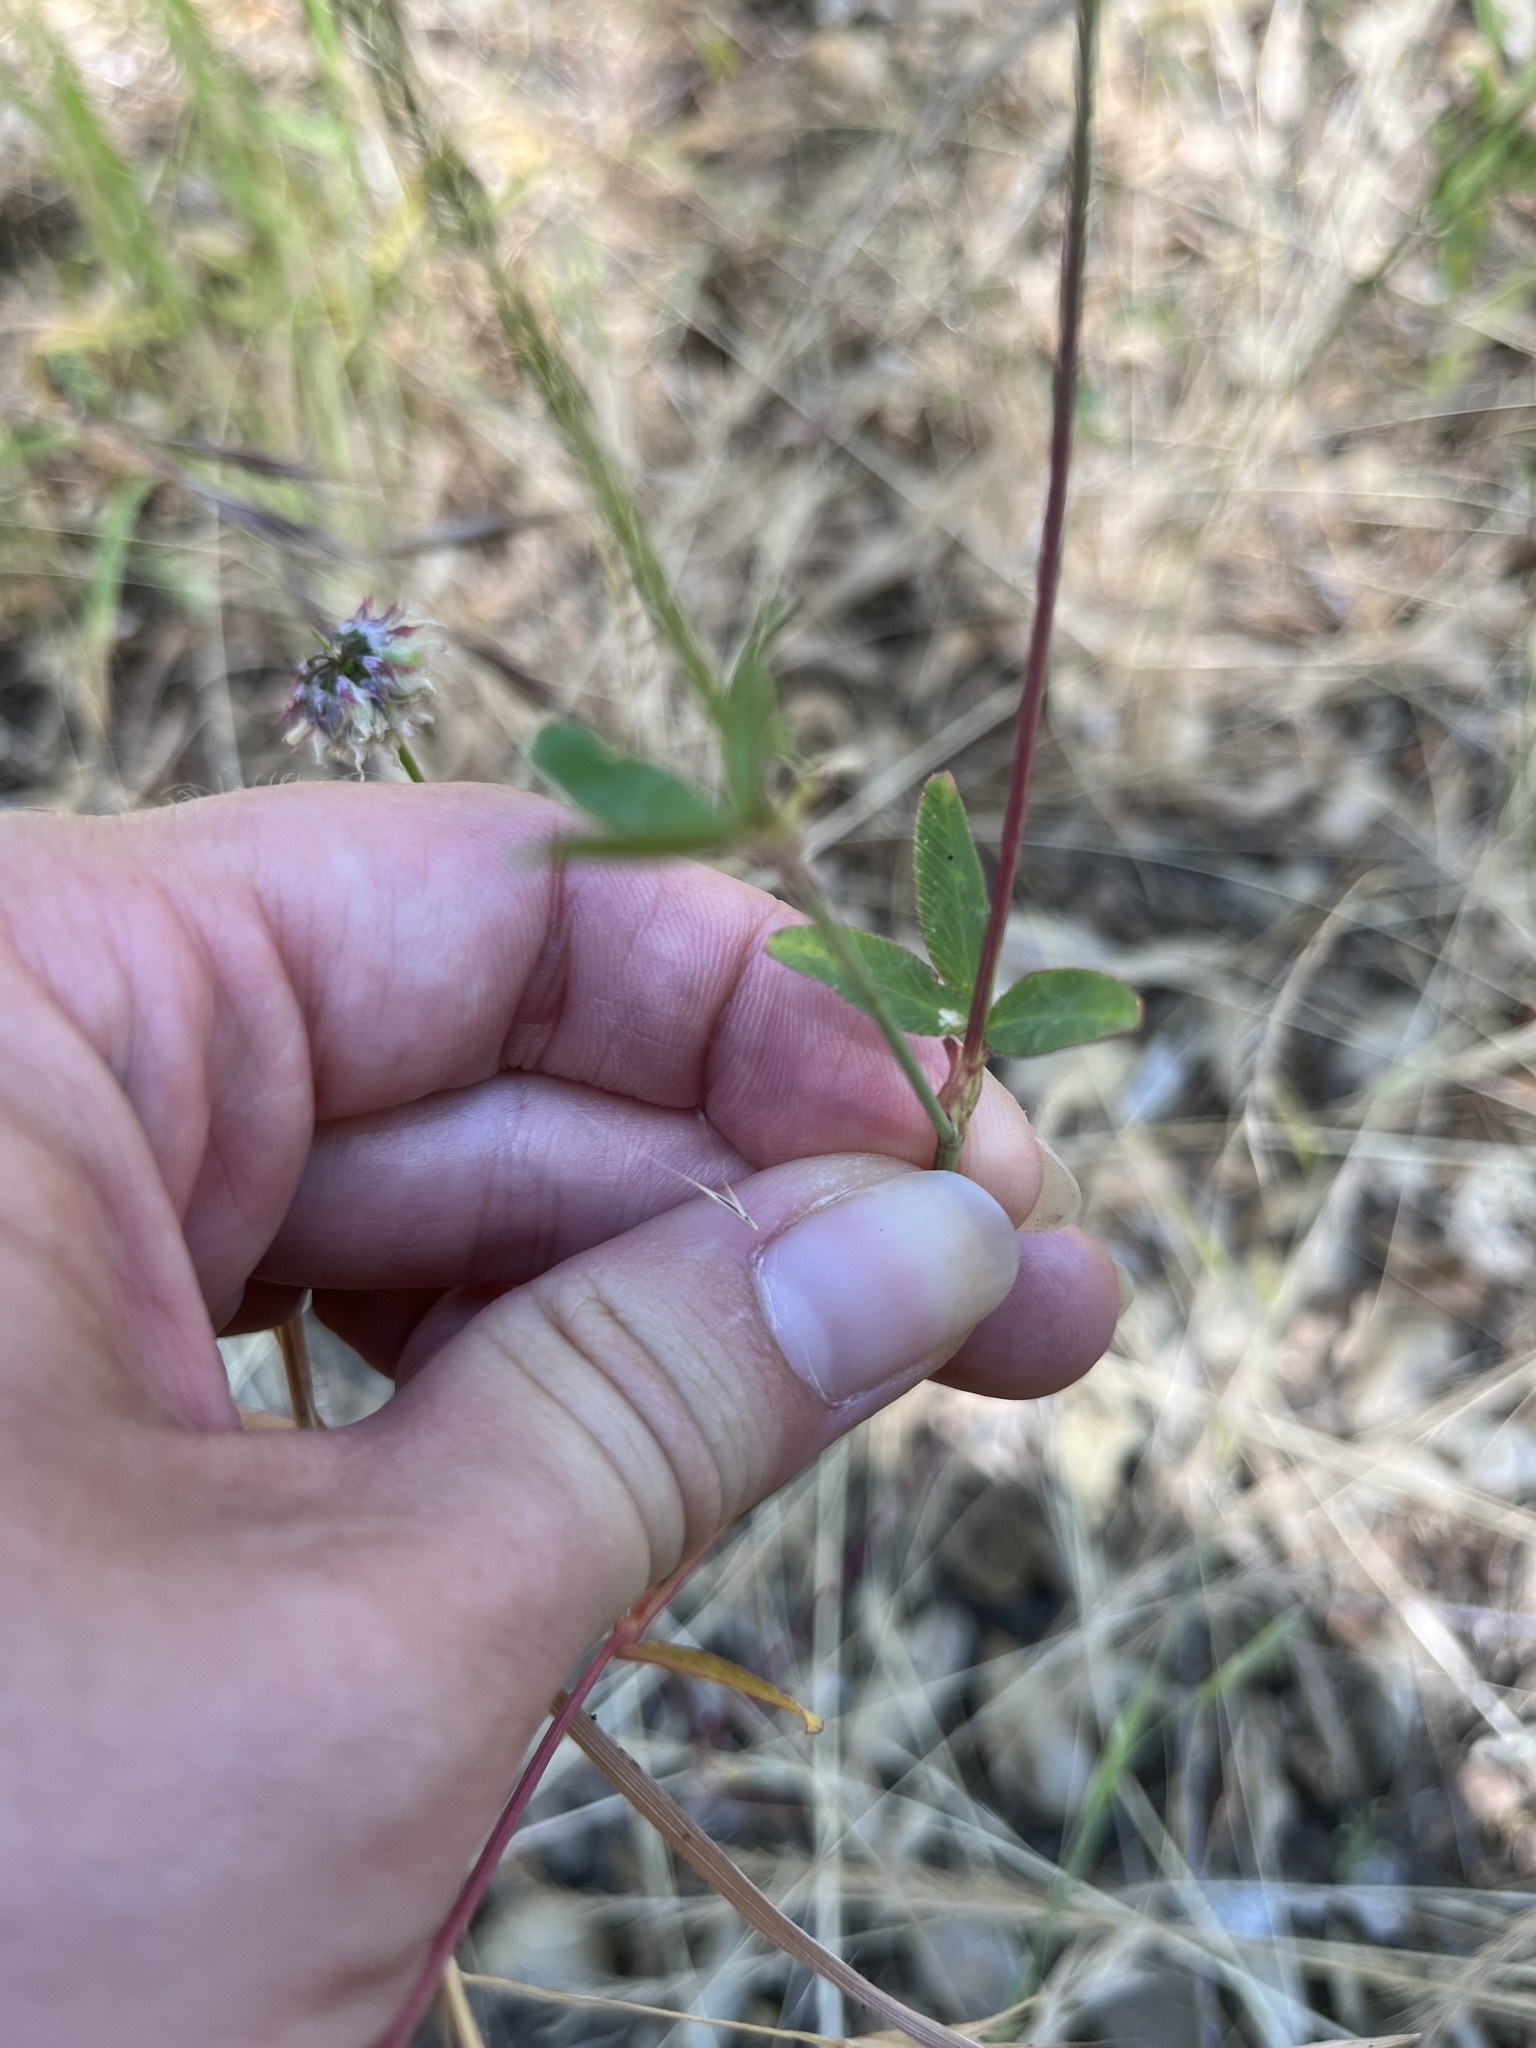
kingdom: Plantae
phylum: Tracheophyta
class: Magnoliopsida
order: Fabales
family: Fabaceae
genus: Trifolium
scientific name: Trifolium ciliolatum
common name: Foothill clover
